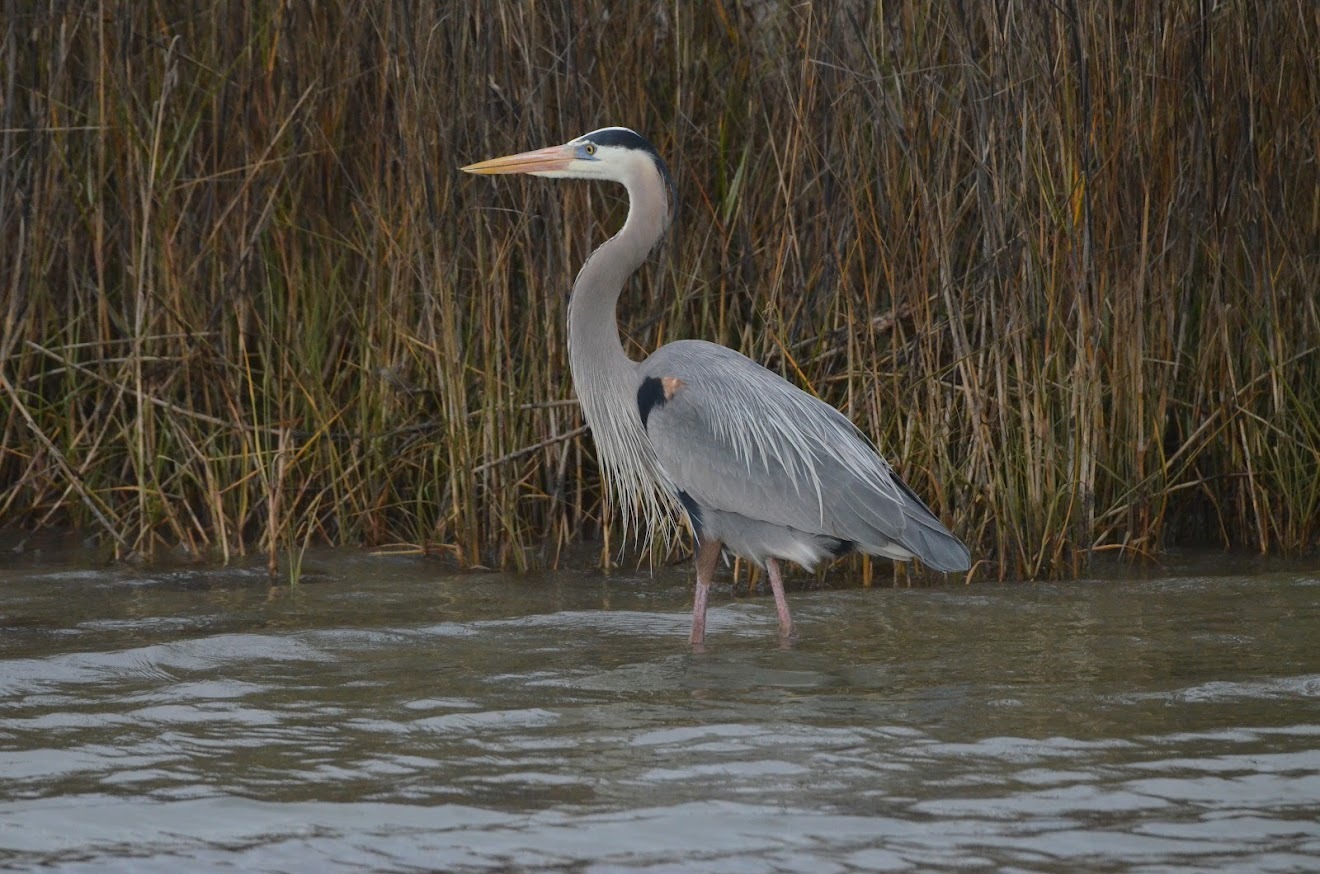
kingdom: Animalia
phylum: Chordata
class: Aves
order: Pelecaniformes
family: Ardeidae
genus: Ardea
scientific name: Ardea herodias
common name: Great blue heron
